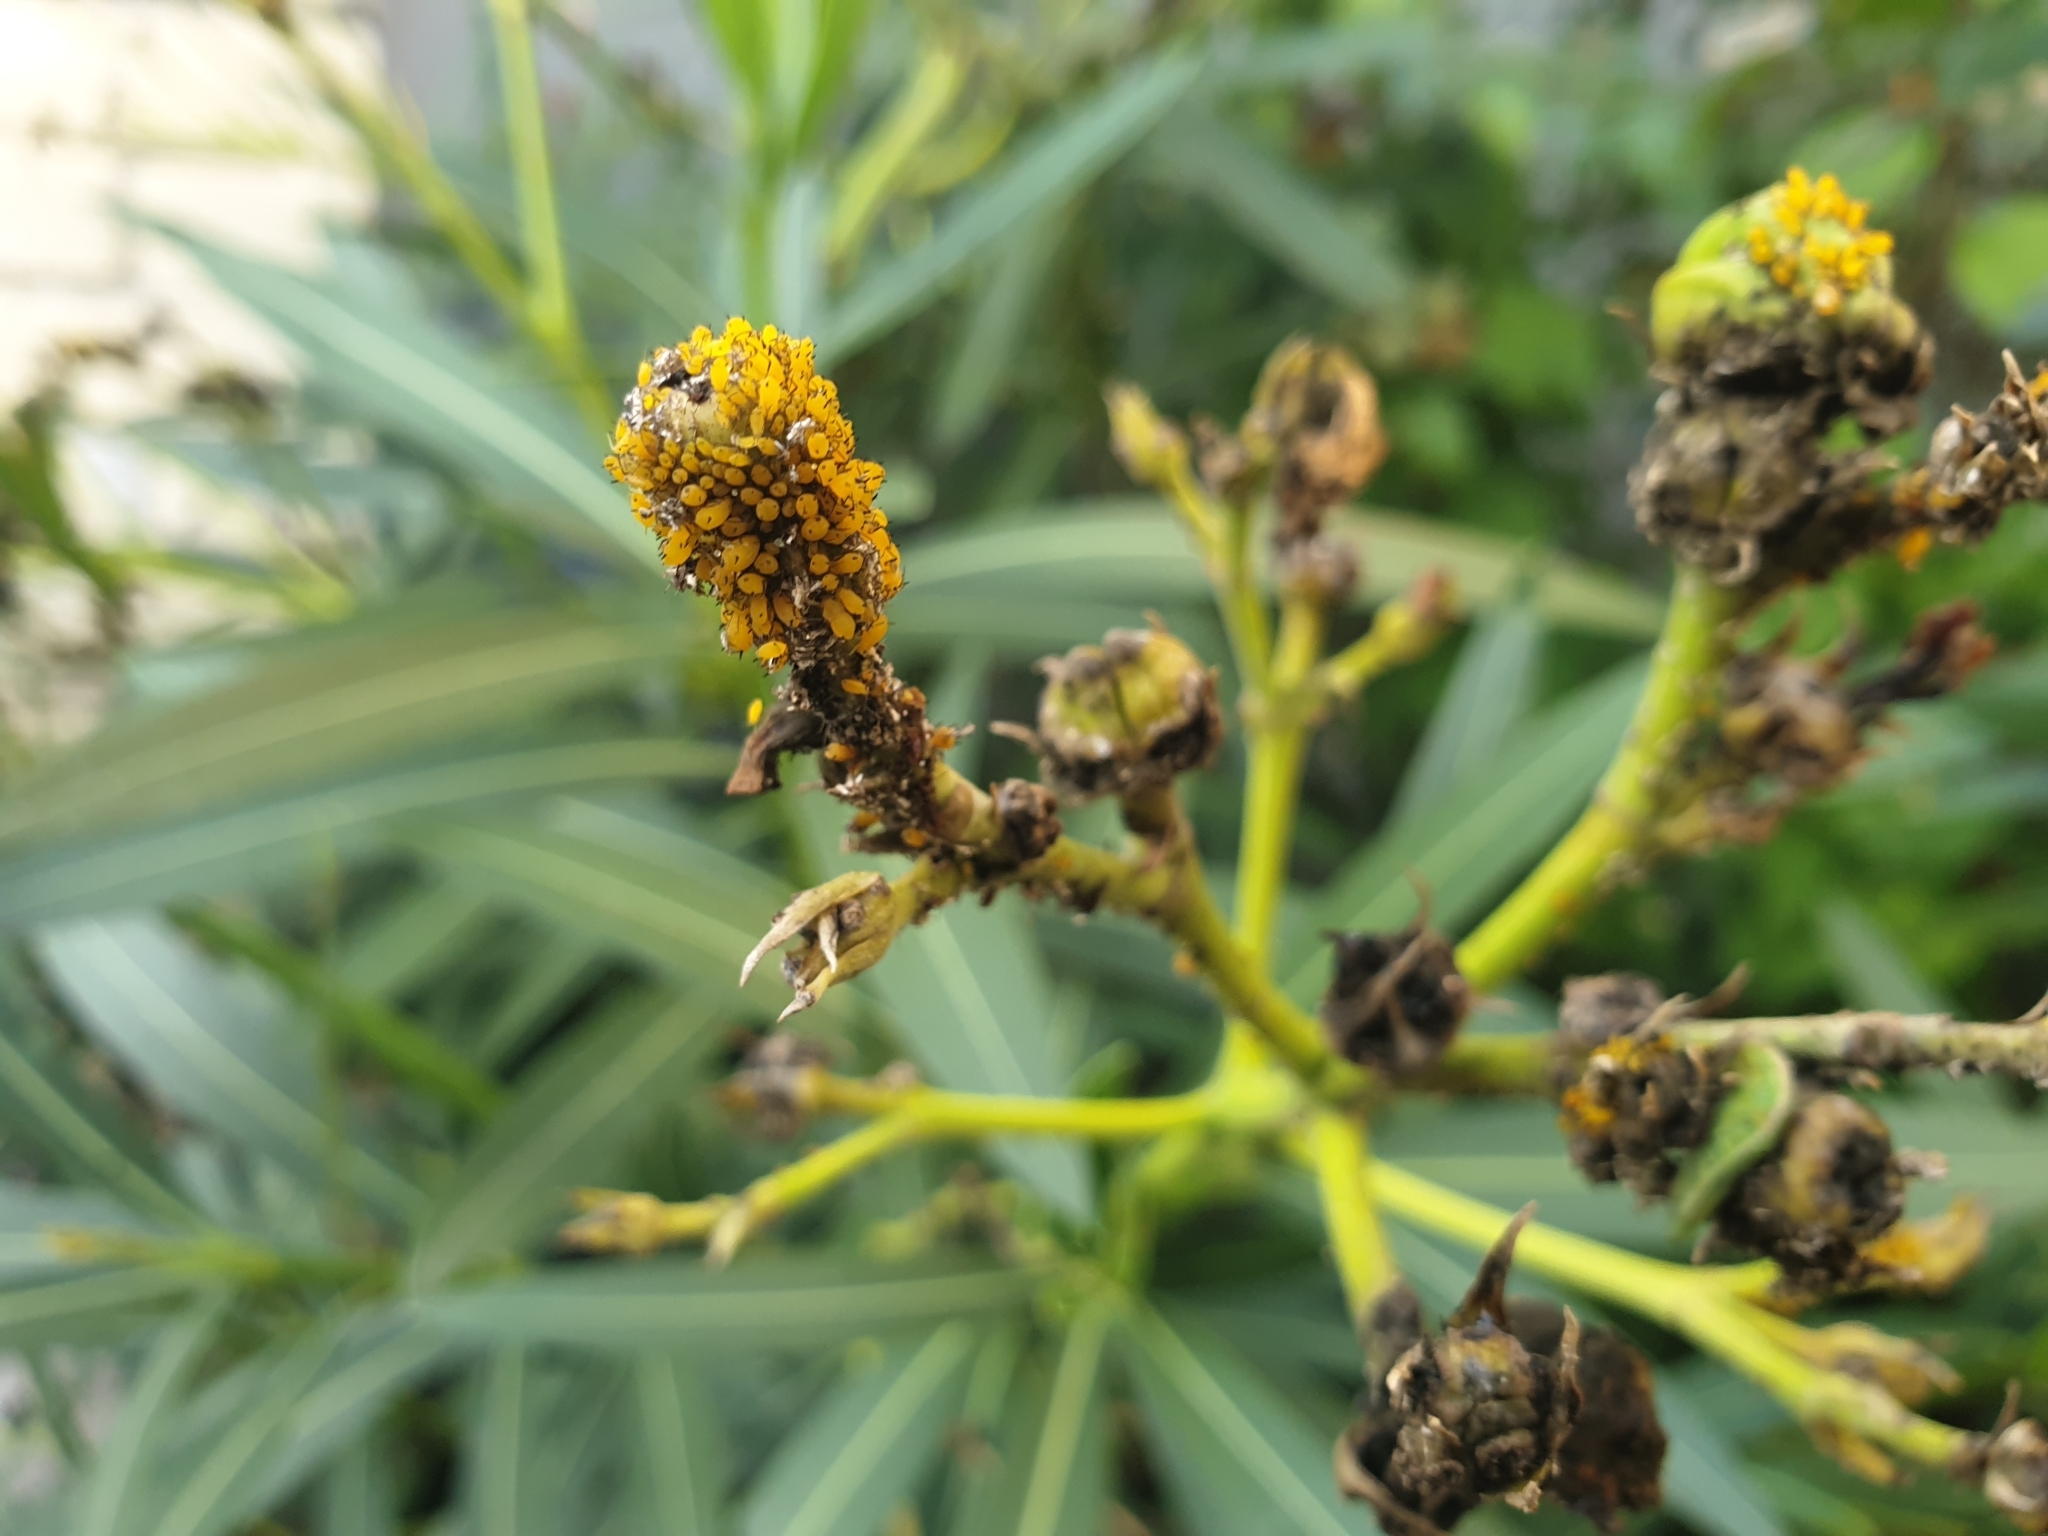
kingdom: Animalia
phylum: Arthropoda
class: Insecta
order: Hemiptera
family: Aphididae
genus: Aphis
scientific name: Aphis nerii
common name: Oleander aphid
